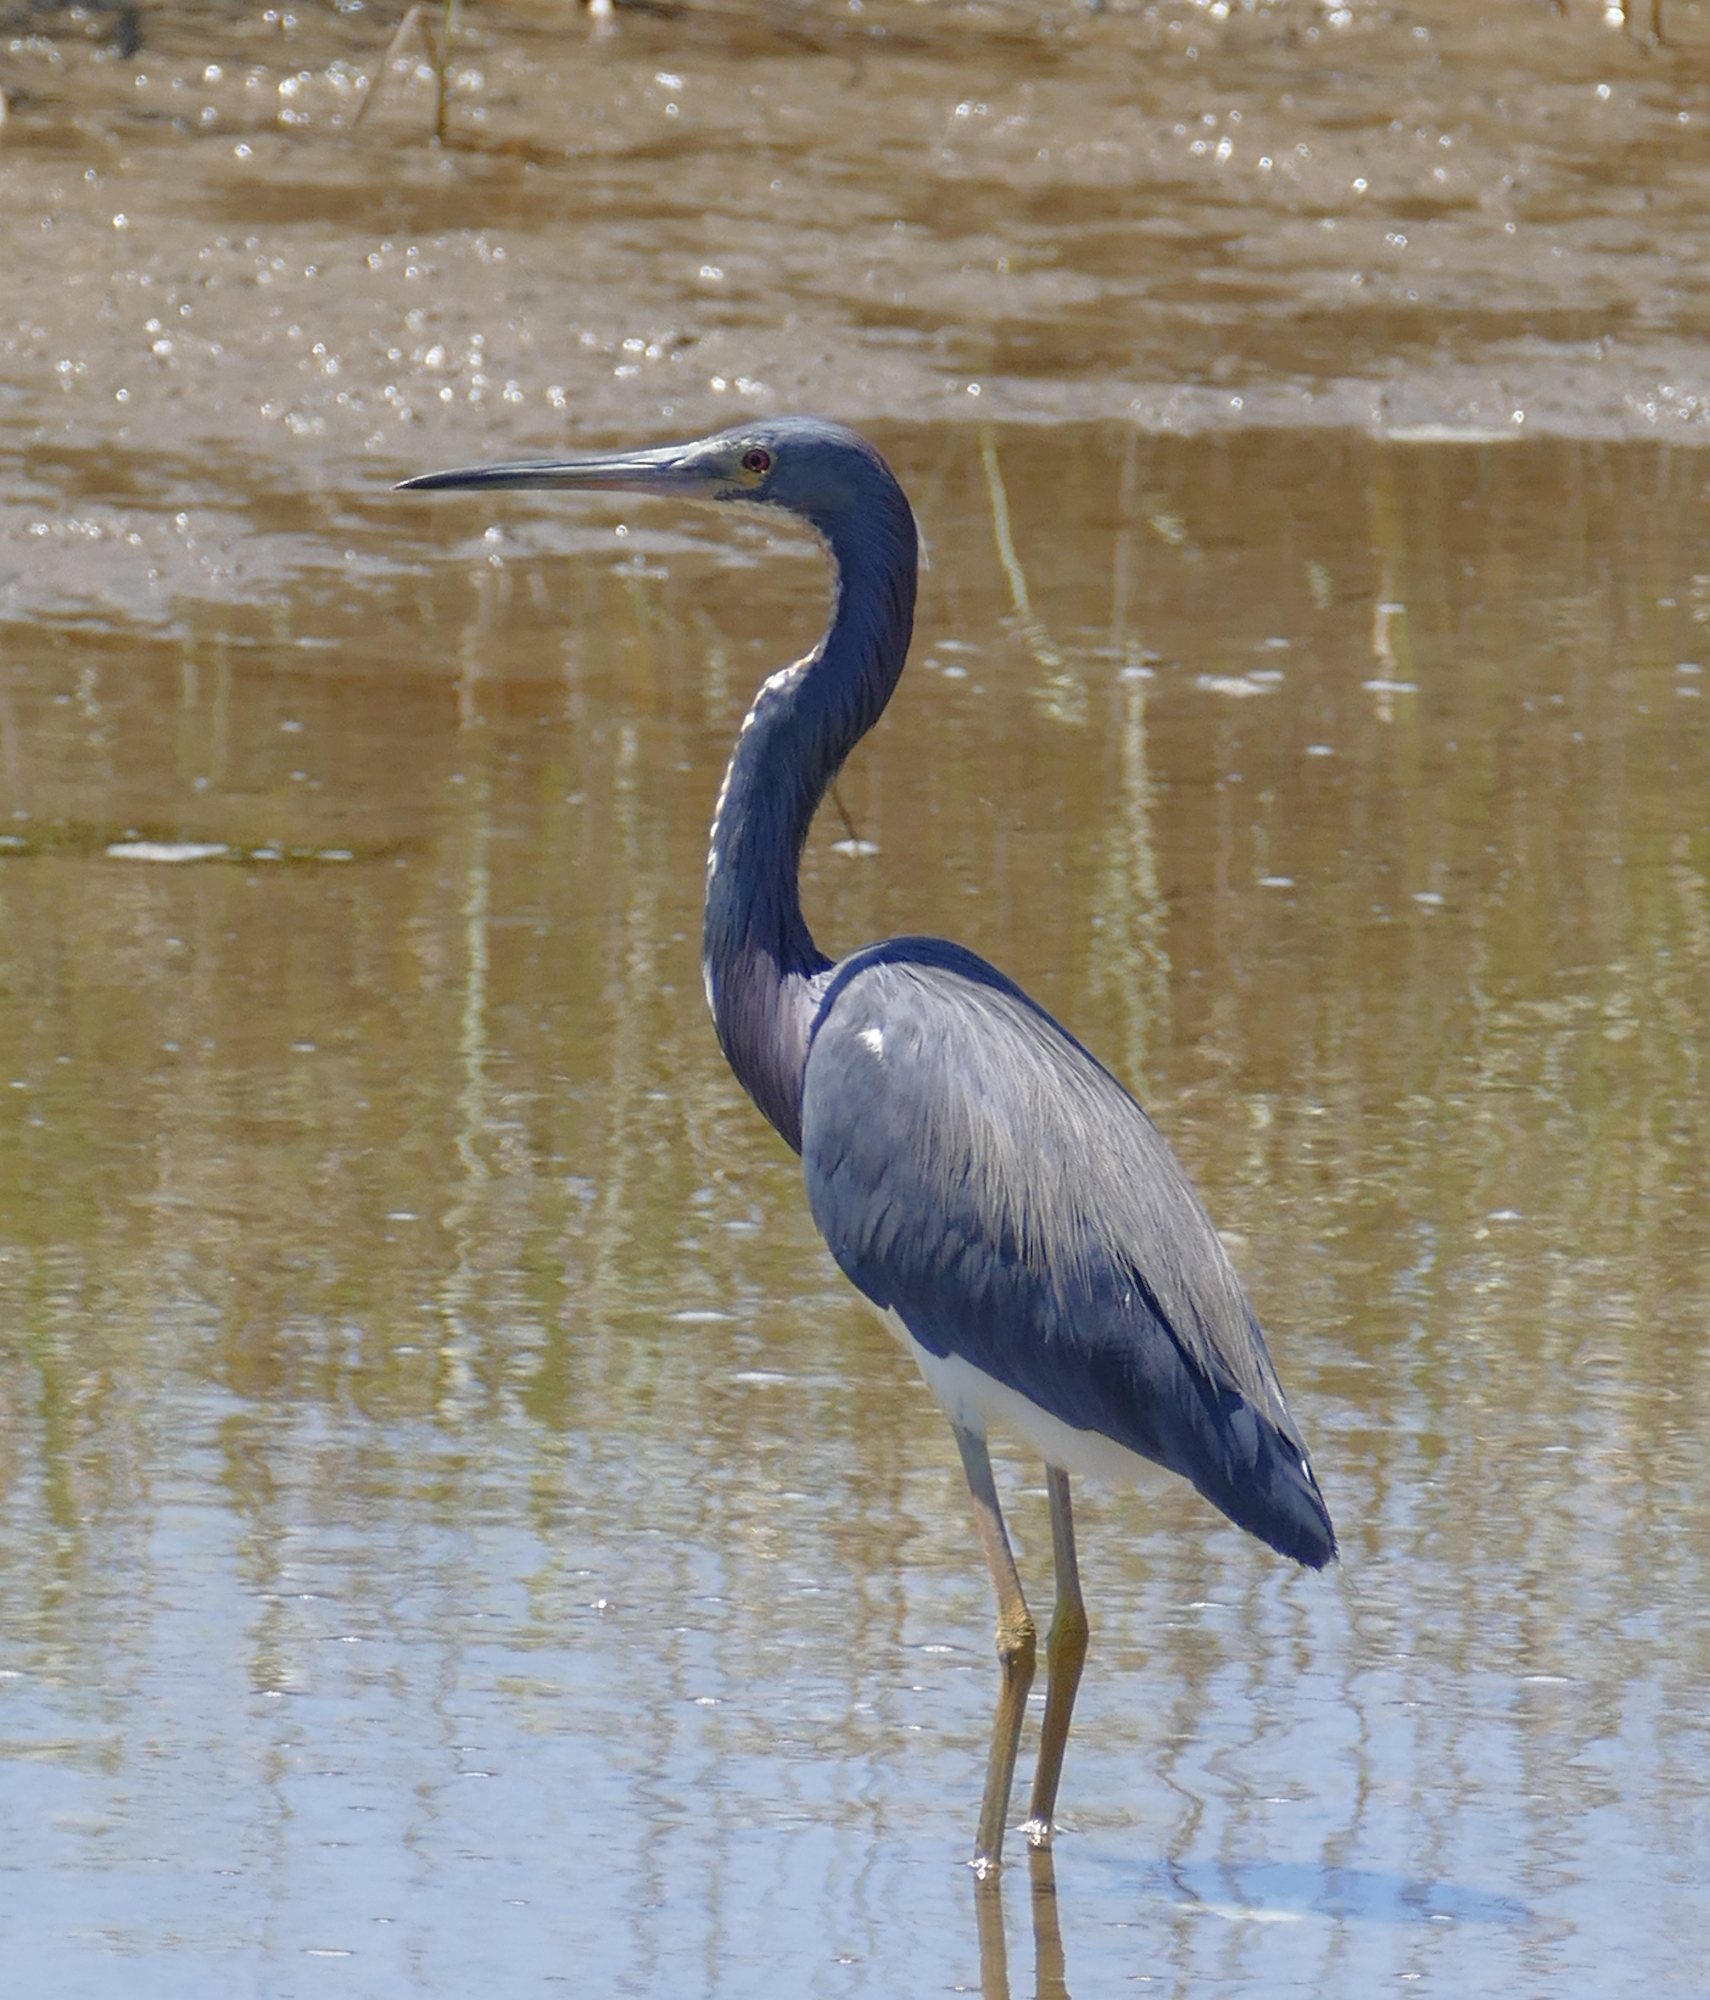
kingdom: Animalia
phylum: Chordata
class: Aves
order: Pelecaniformes
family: Ardeidae
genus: Egretta
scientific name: Egretta tricolor
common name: Tricolored heron
